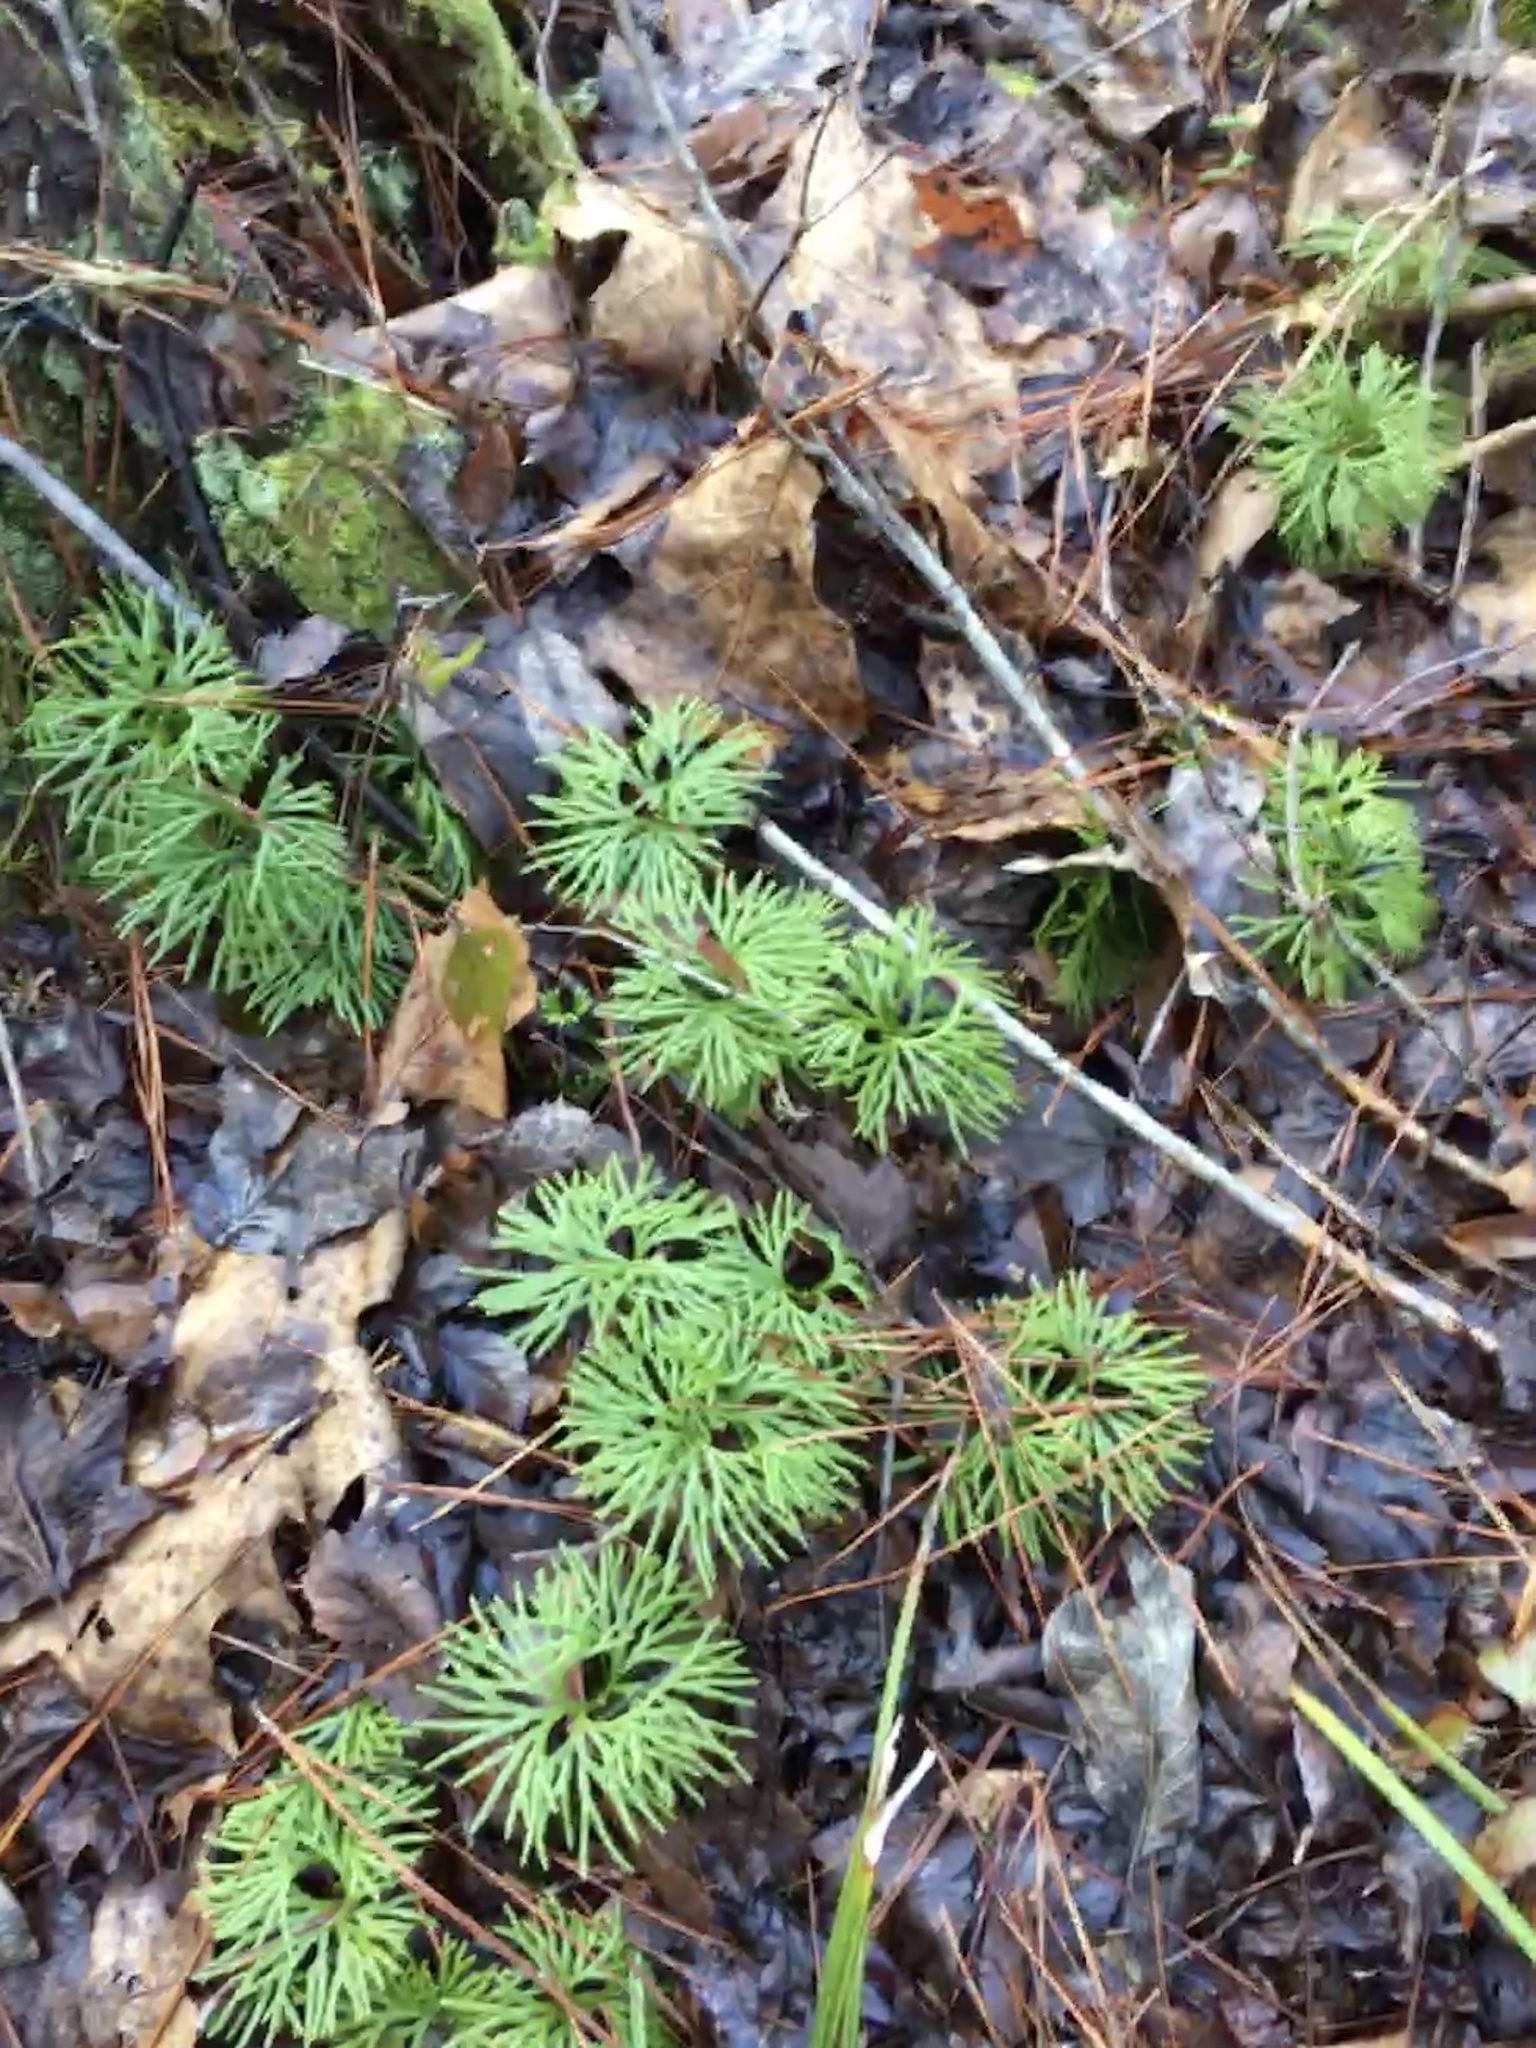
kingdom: Plantae
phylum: Tracheophyta
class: Lycopodiopsida
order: Lycopodiales
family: Lycopodiaceae
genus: Diphasiastrum
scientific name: Diphasiastrum digitatum
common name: Southern running-pine
